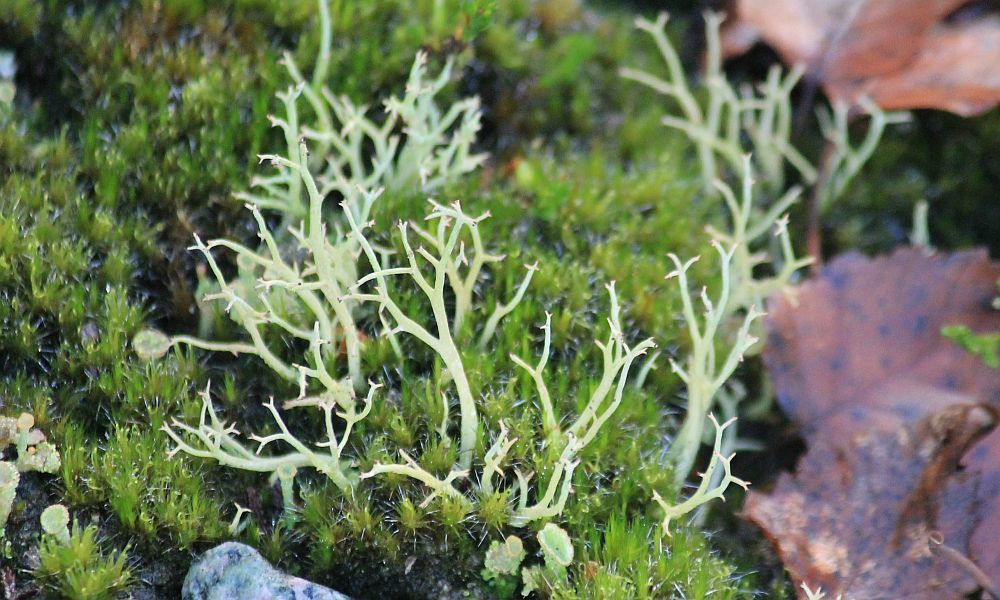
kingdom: Fungi
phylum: Ascomycota
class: Lecanoromycetes
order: Lecanorales
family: Cladoniaceae
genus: Cladonia
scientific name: Cladonia furcata
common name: Many-forked cladonia
